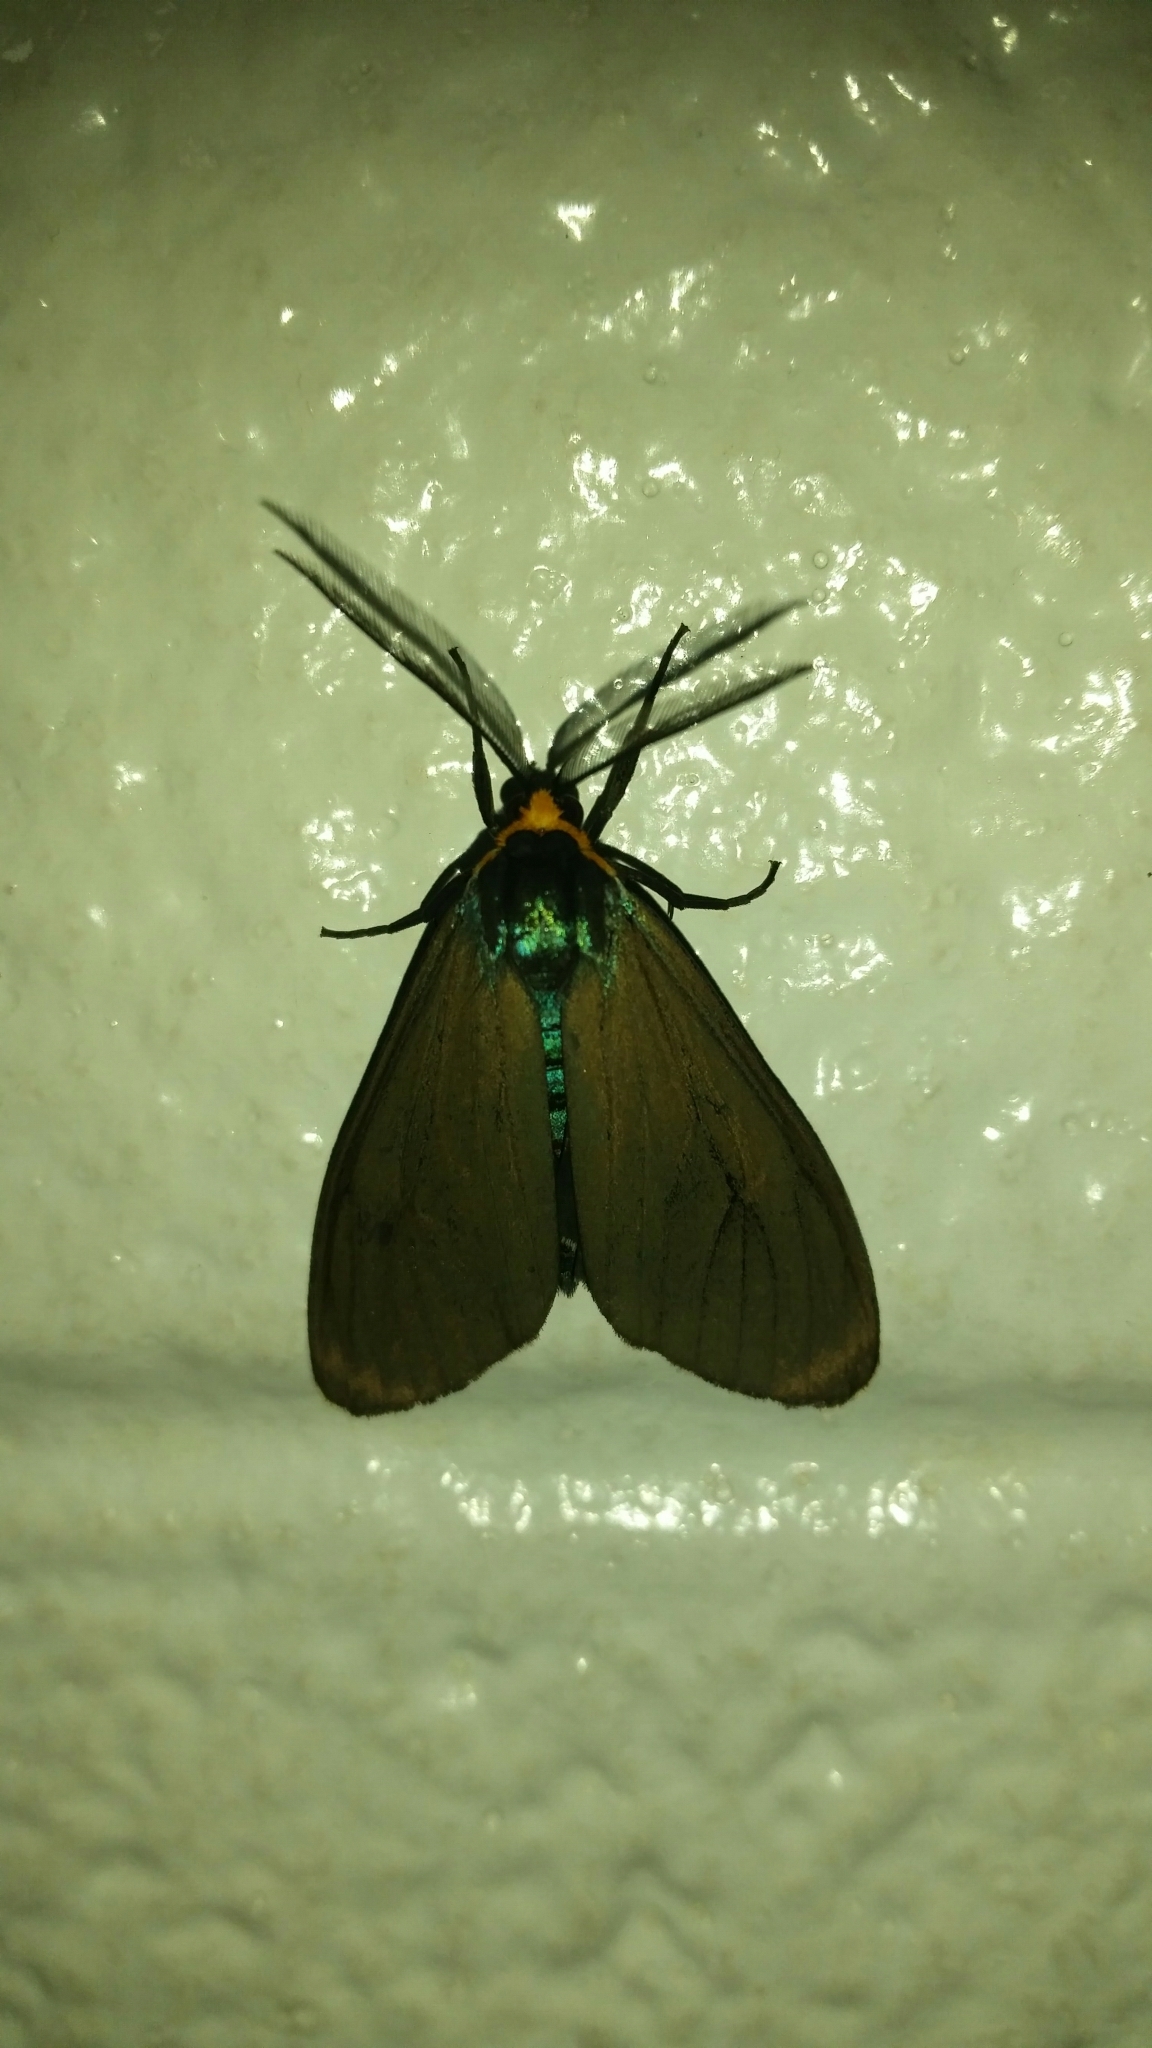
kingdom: Animalia
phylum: Arthropoda
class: Insecta
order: Lepidoptera
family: Erebidae
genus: Ctenucha
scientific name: Ctenucha virginica
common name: Virginia ctenucha moth
